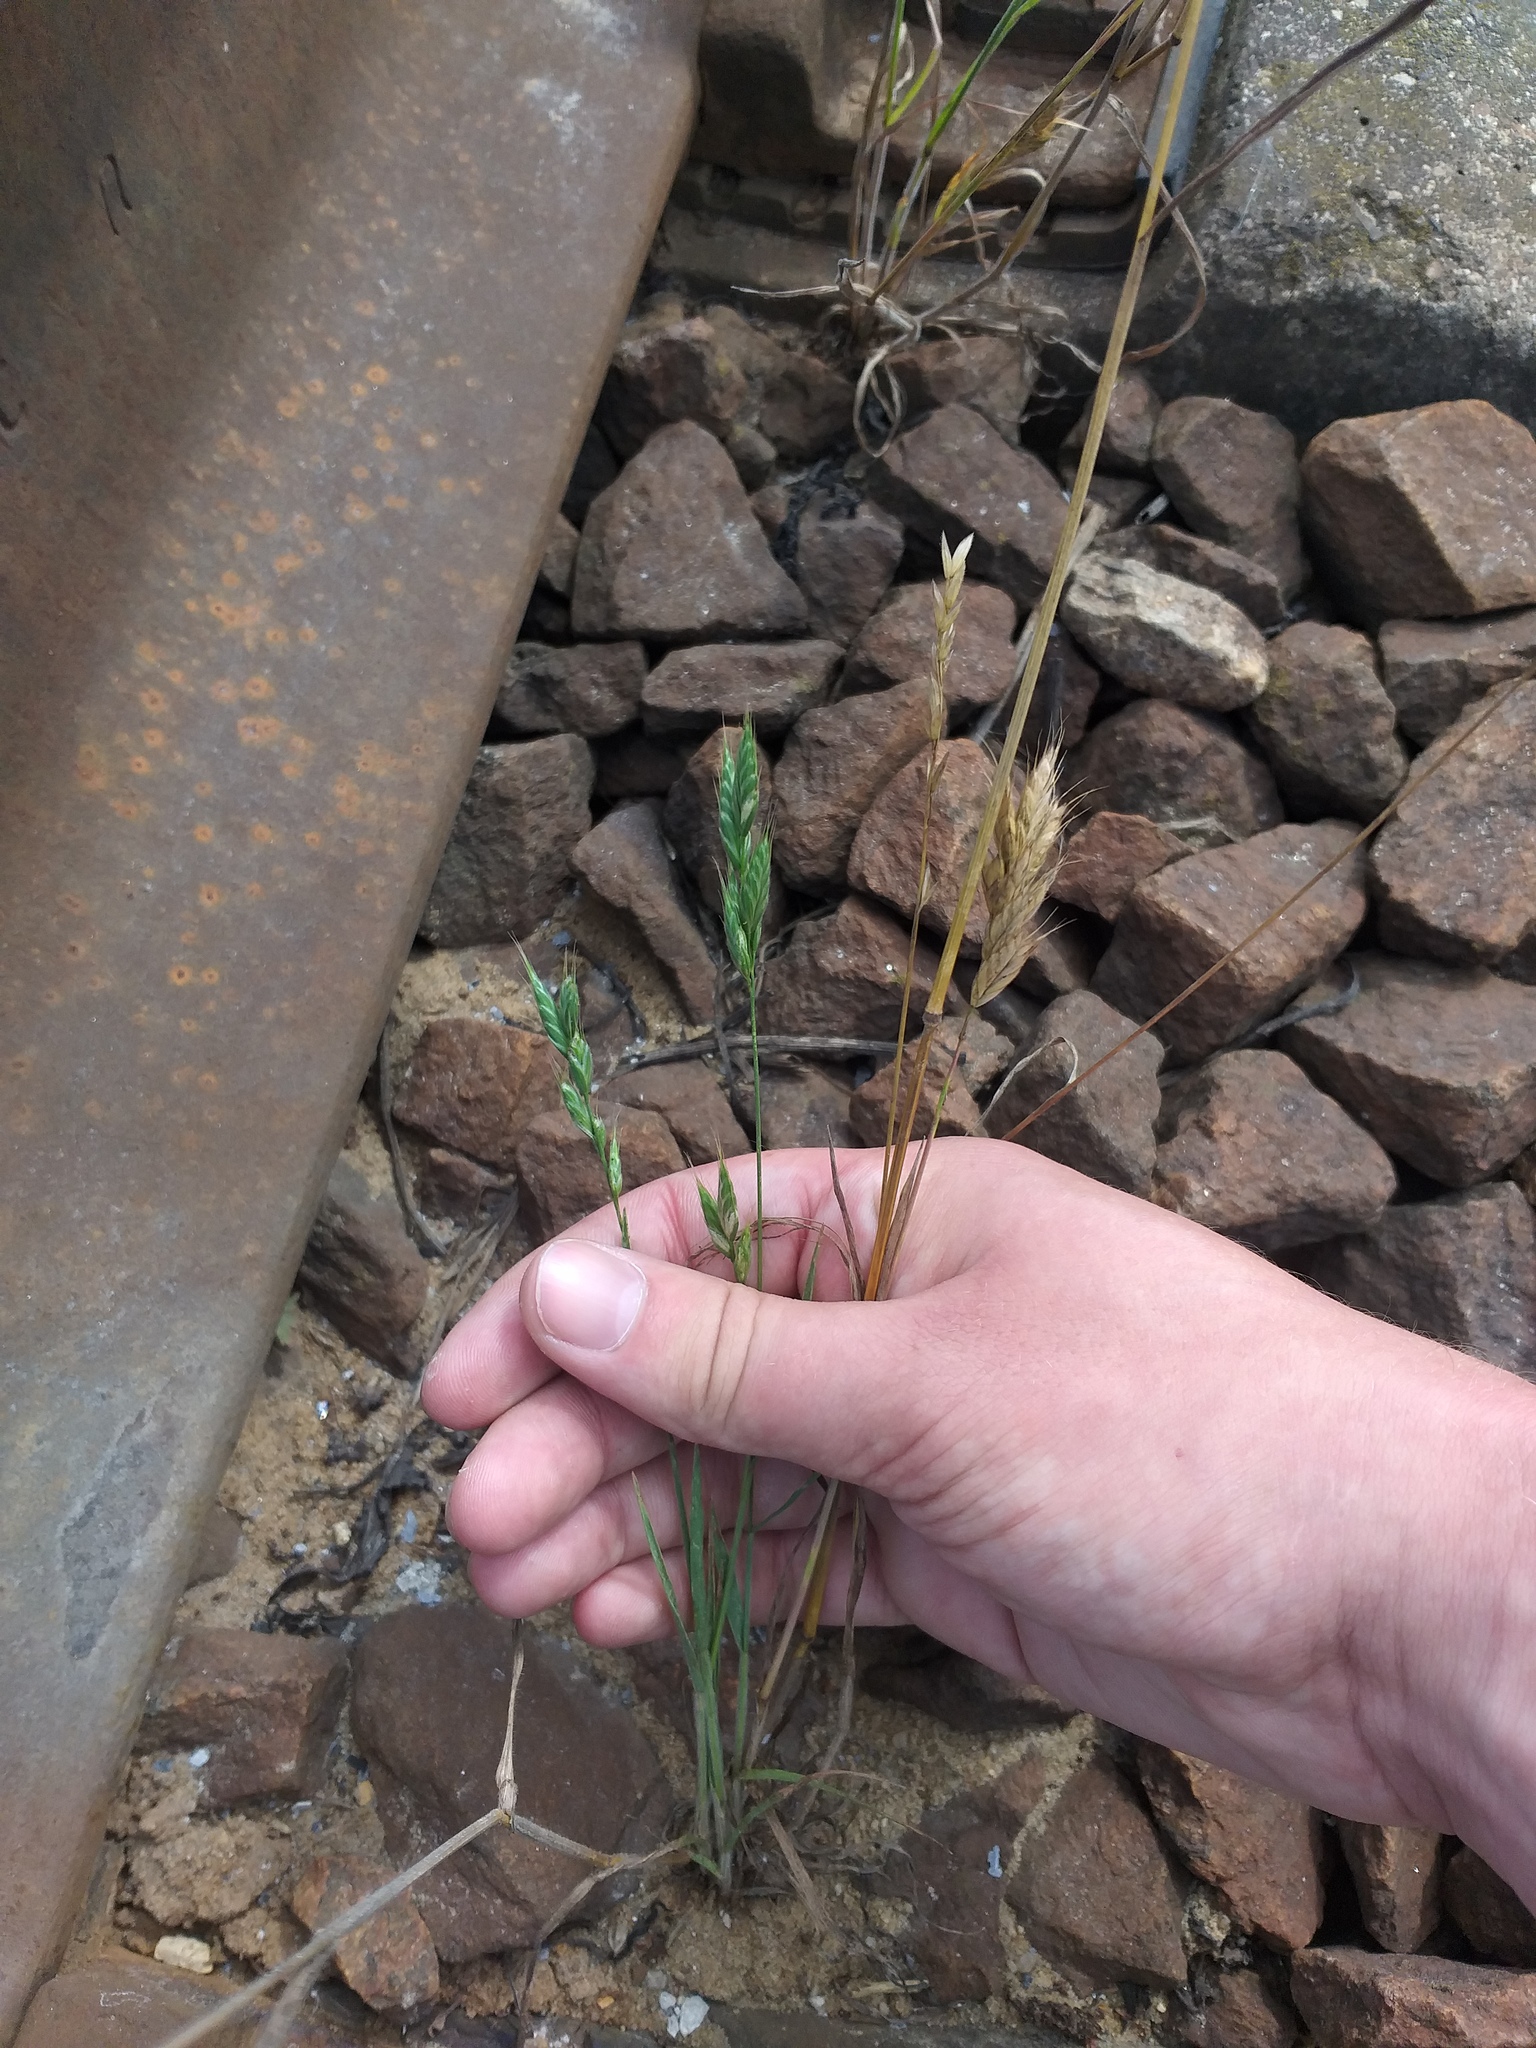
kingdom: Plantae
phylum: Tracheophyta
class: Liliopsida
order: Poales
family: Poaceae
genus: Bromus
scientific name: Bromus hordeaceus
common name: Soft brome
